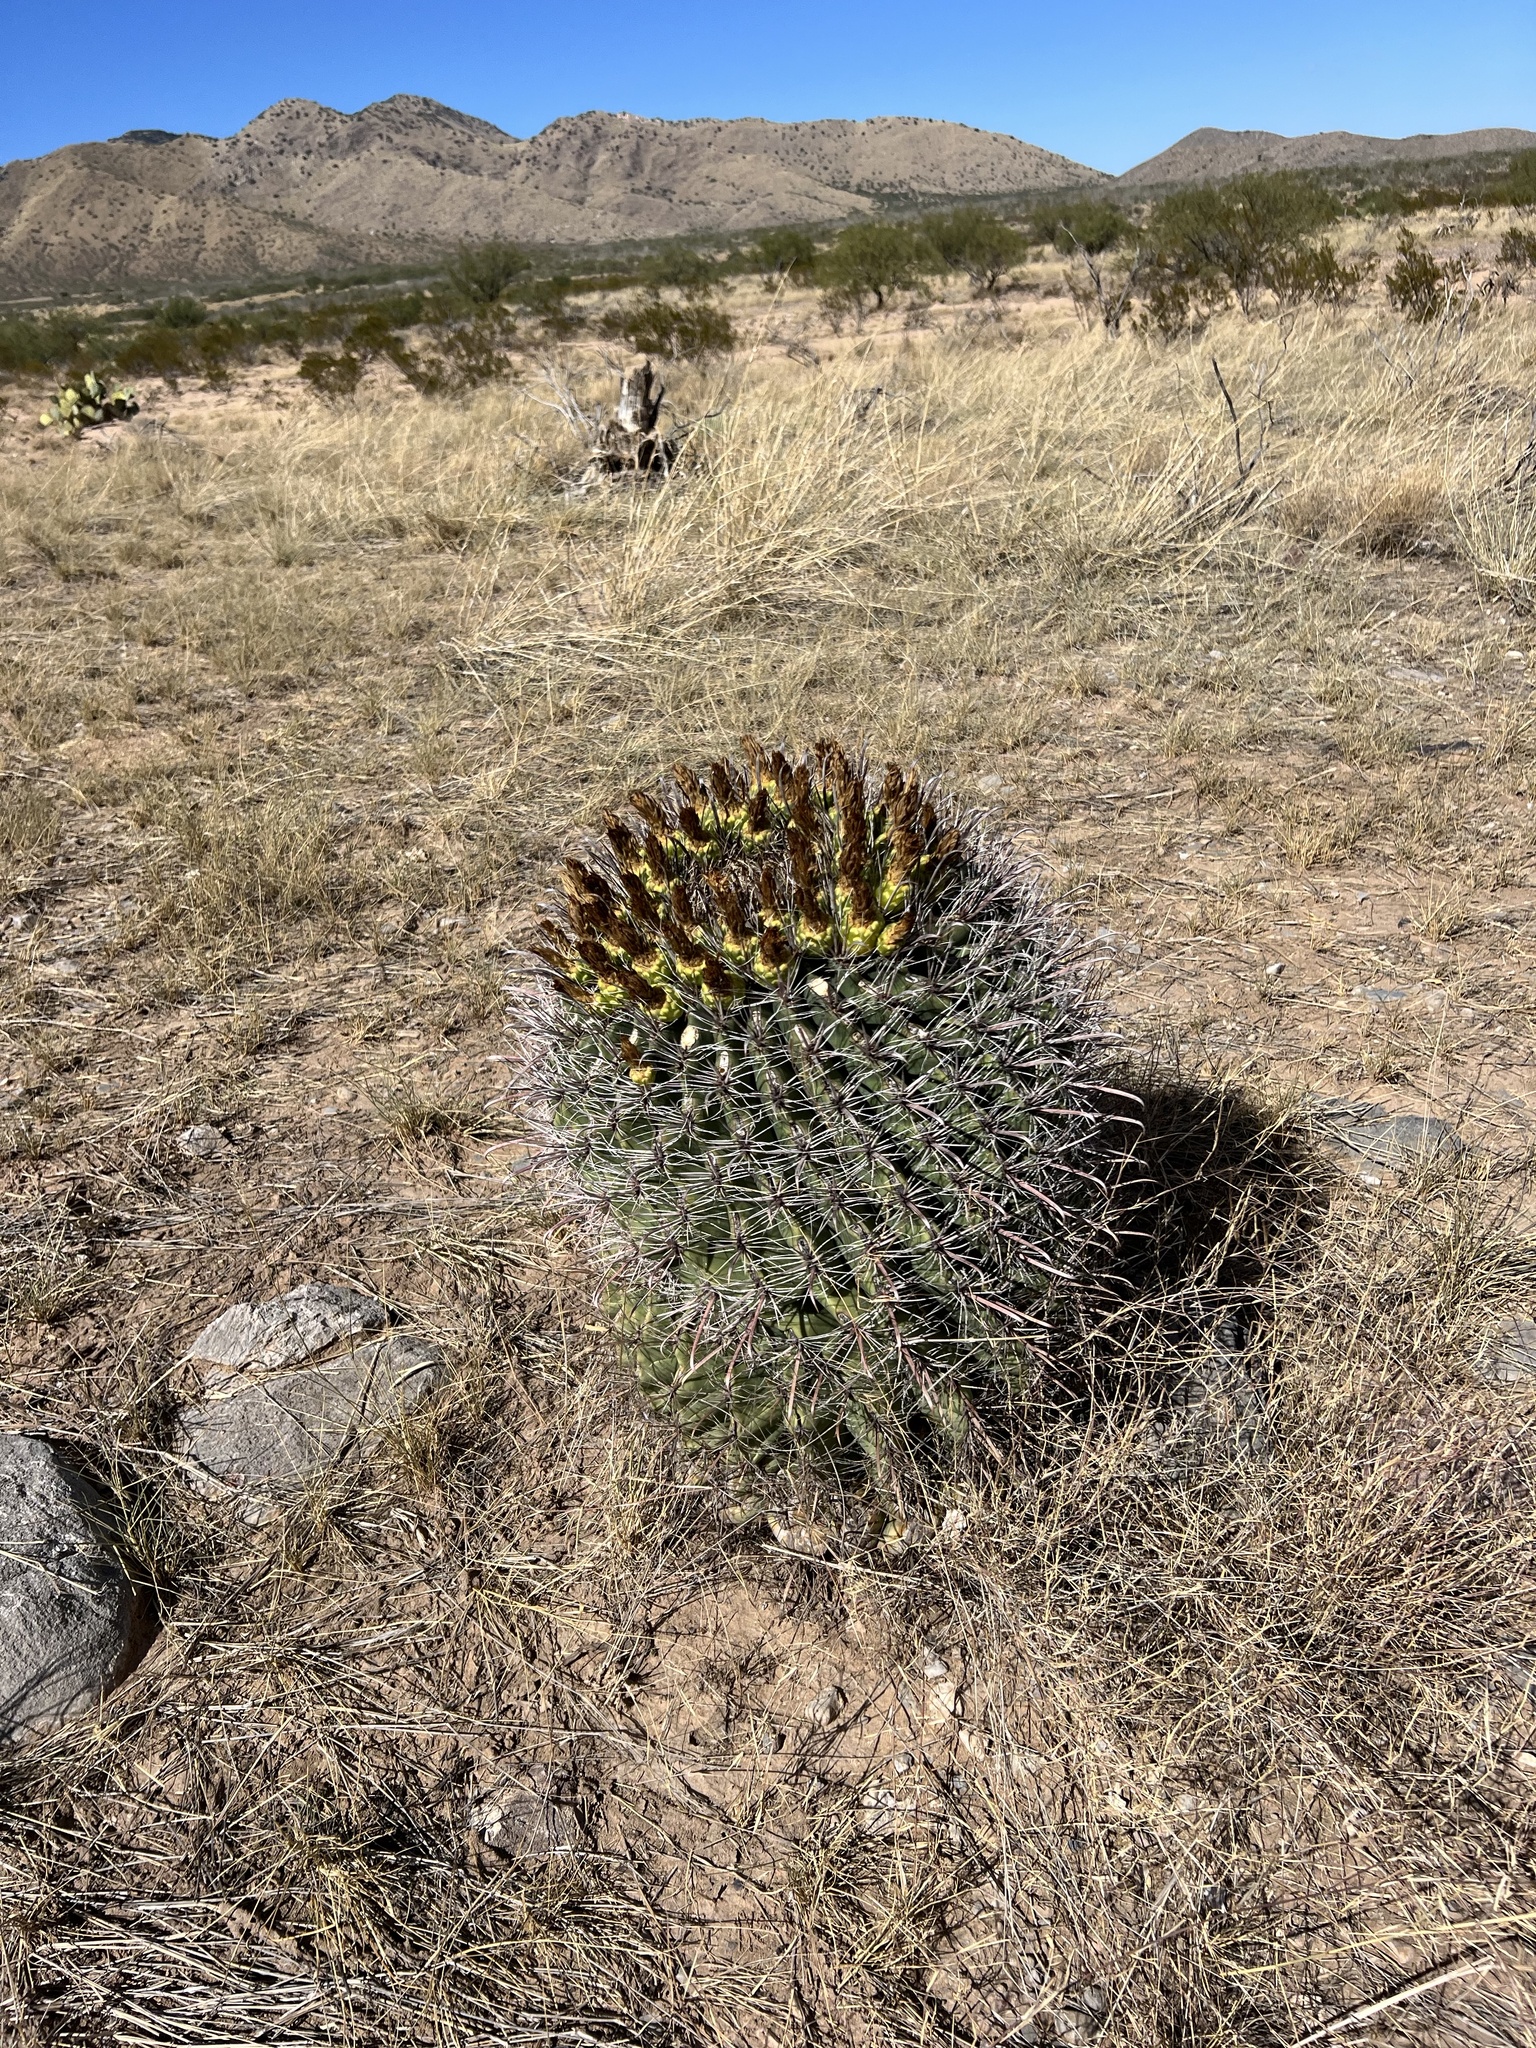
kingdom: Plantae
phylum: Tracheophyta
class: Magnoliopsida
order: Caryophyllales
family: Cactaceae
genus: Ferocactus
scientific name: Ferocactus wislizeni
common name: Candy barrel cactus
